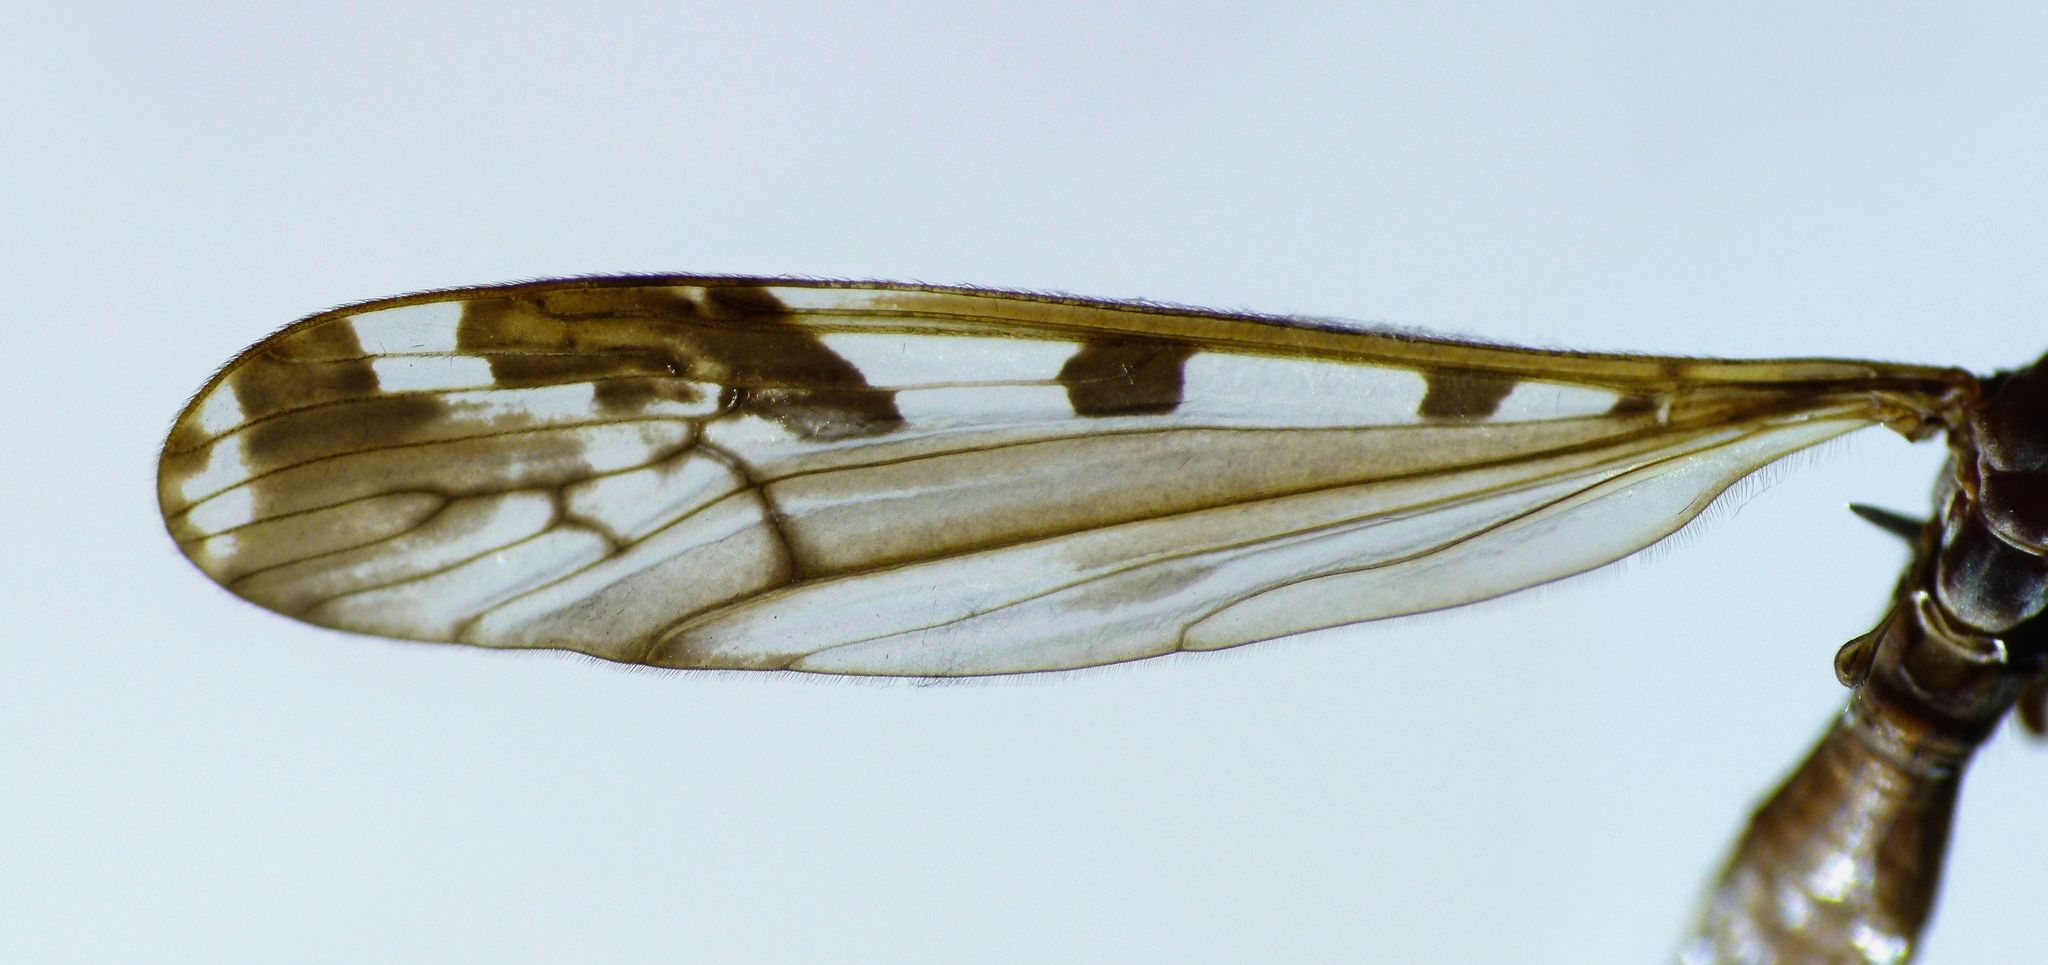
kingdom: Animalia
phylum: Arthropoda
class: Insecta
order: Diptera
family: Limoniidae
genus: Paralimnophila
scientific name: Paralimnophila kumarensis
